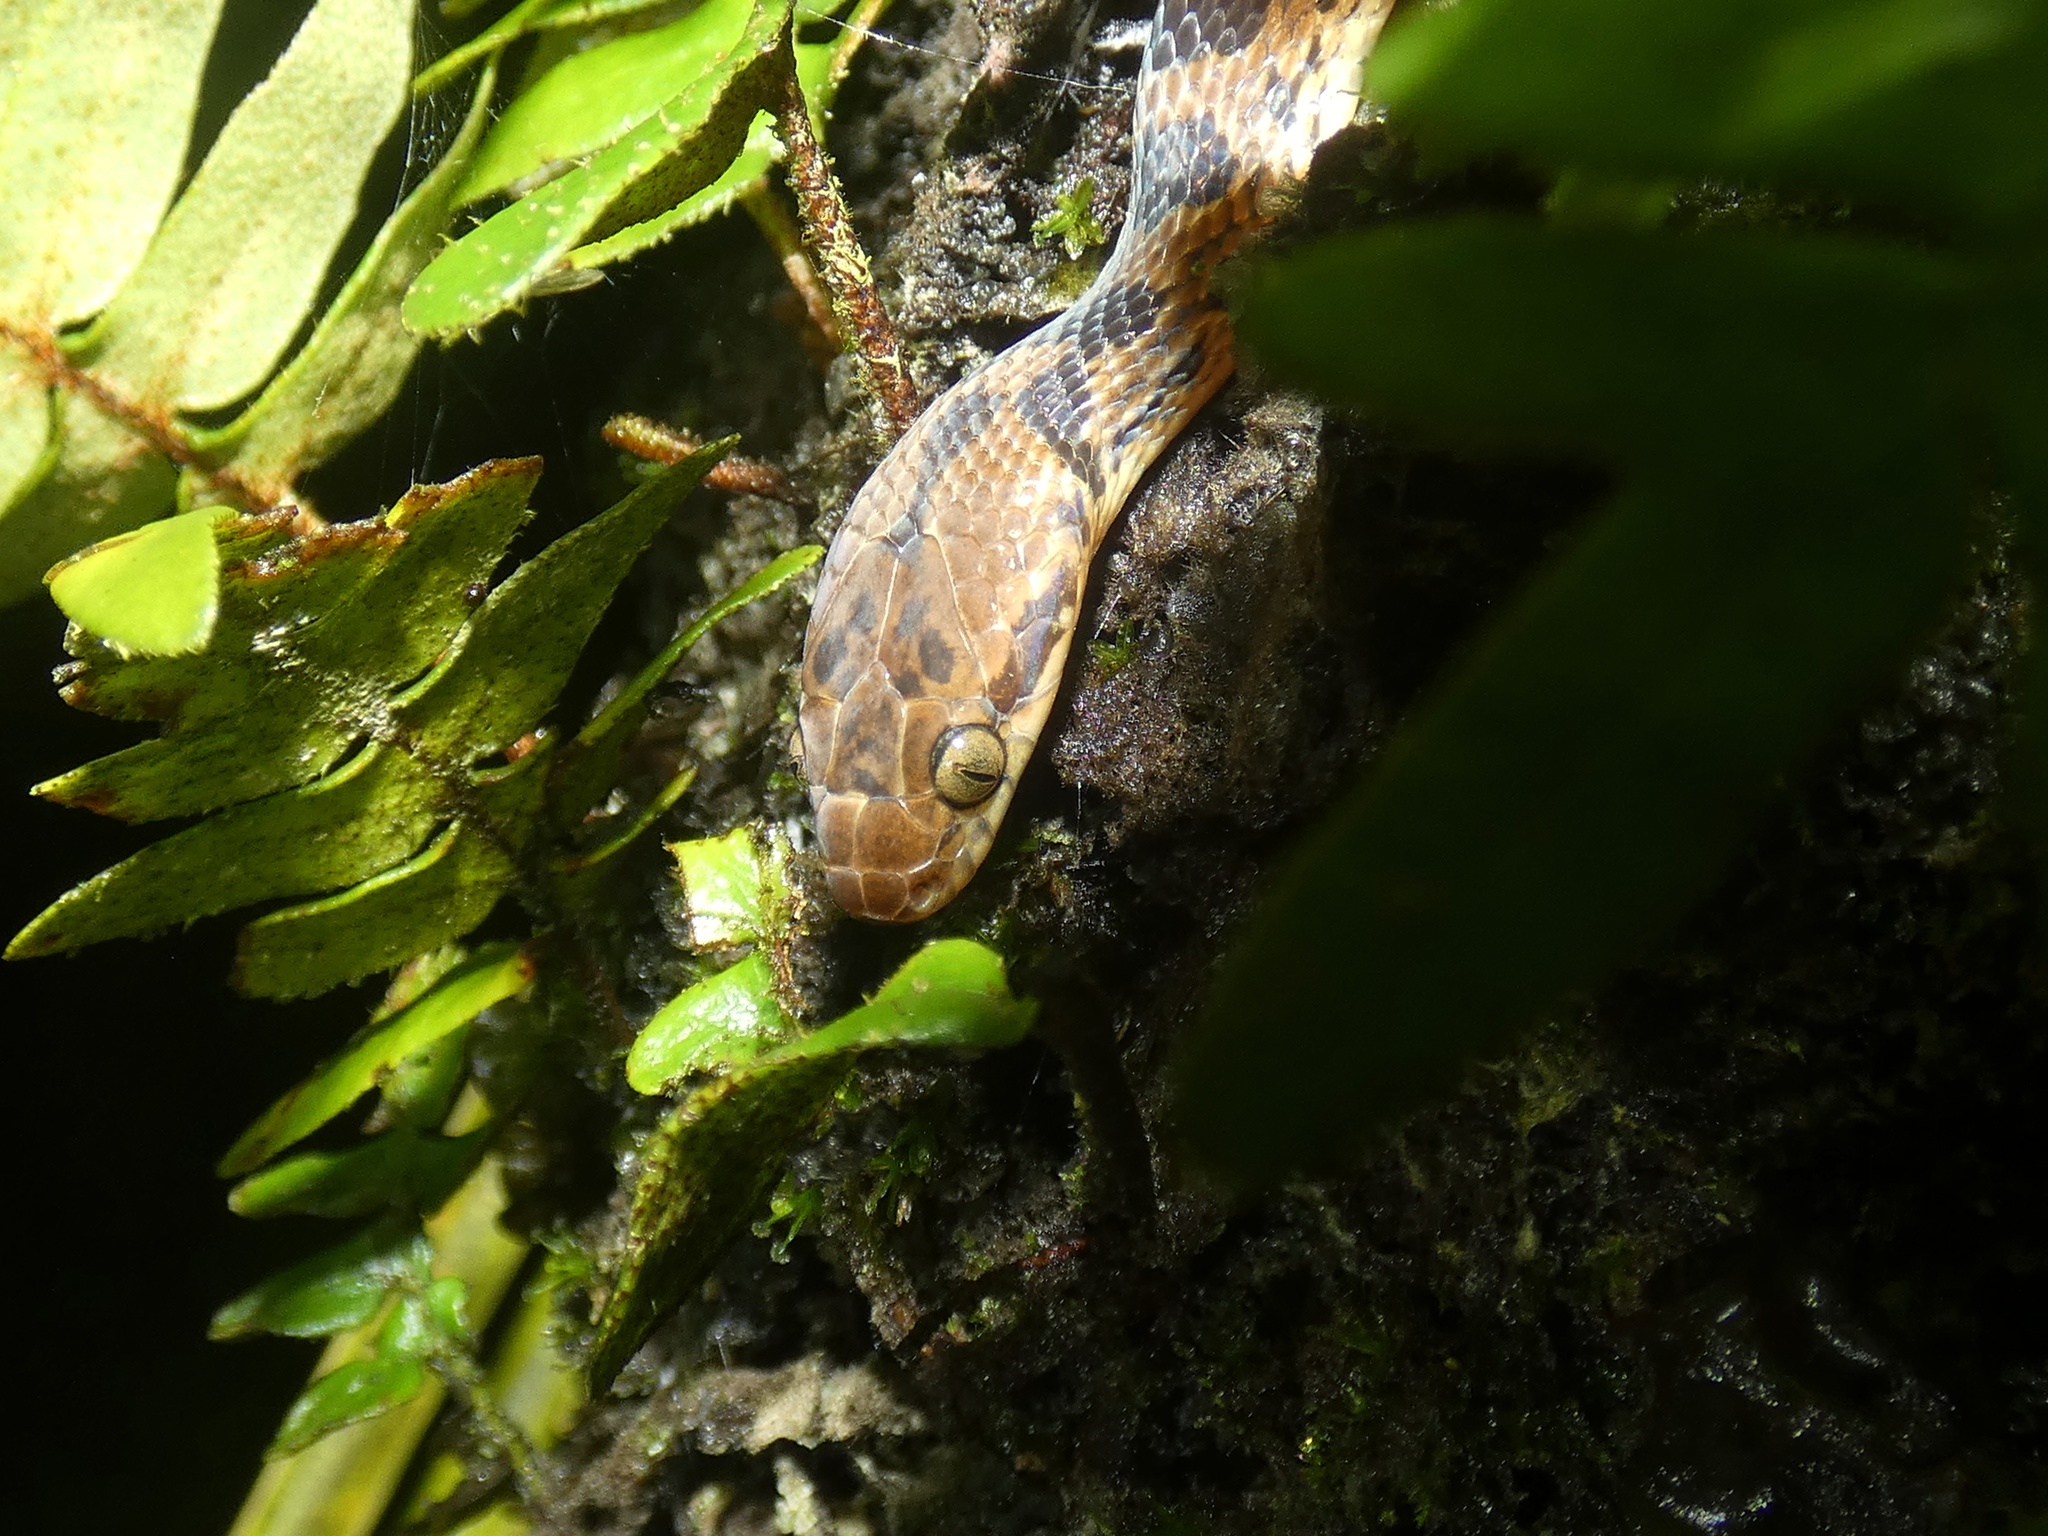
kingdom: Animalia
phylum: Chordata
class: Squamata
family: Colubridae
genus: Leptodeira
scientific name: Leptodeira ornata
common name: Northern cat-eyed snake
